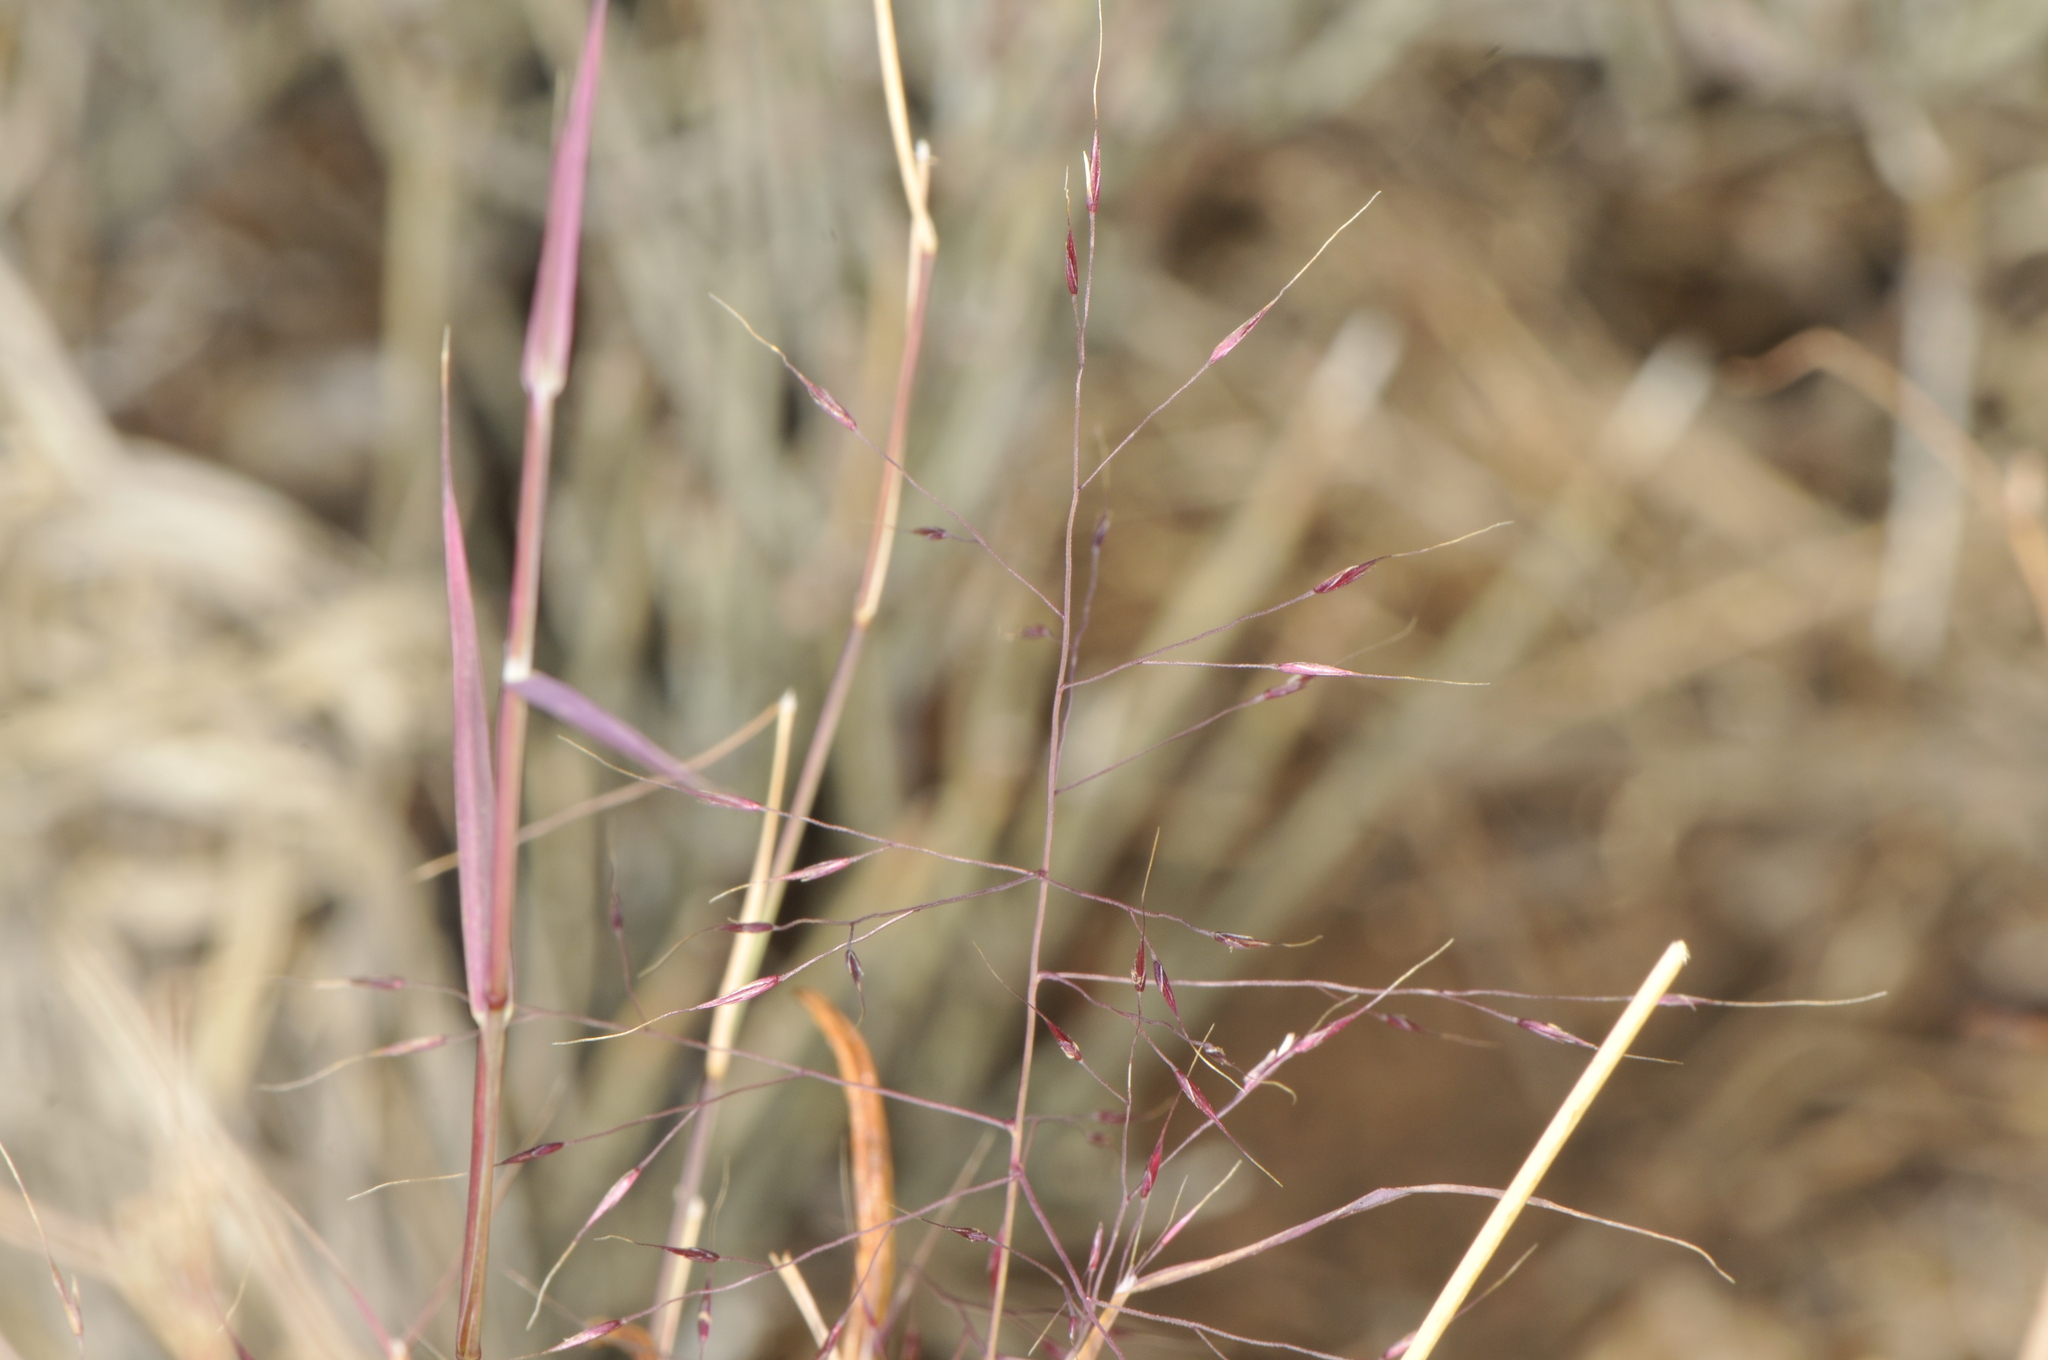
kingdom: Plantae
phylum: Tracheophyta
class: Liliopsida
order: Poales
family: Poaceae
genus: Muhlenbergia
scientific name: Muhlenbergia porteri
